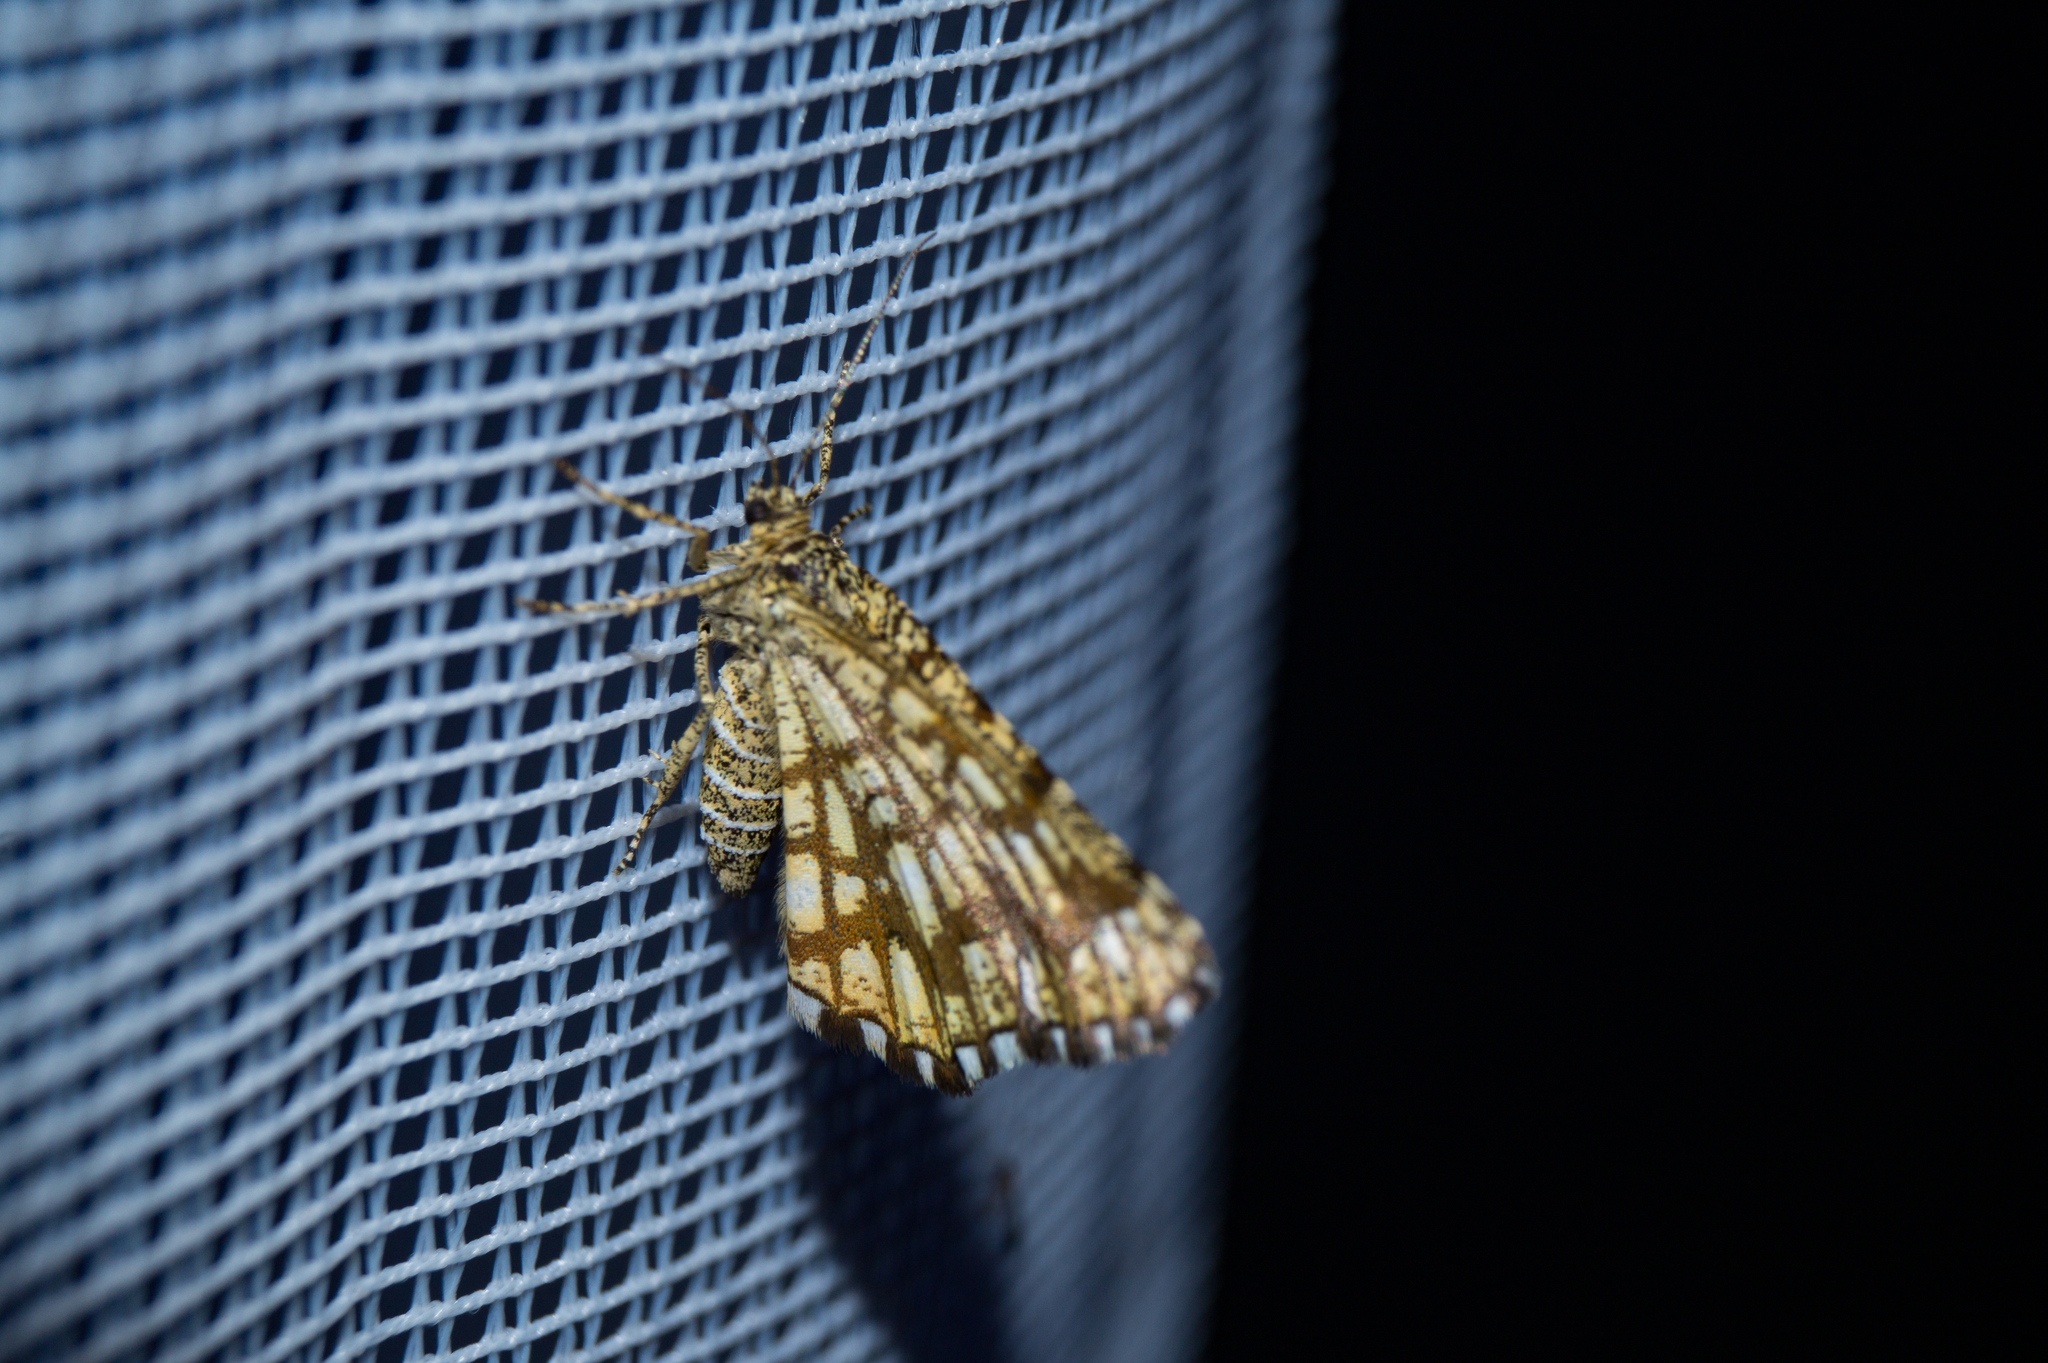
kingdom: Animalia
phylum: Arthropoda
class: Insecta
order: Lepidoptera
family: Geometridae
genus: Chiasmia
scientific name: Chiasmia clathrata
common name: Latticed heath
